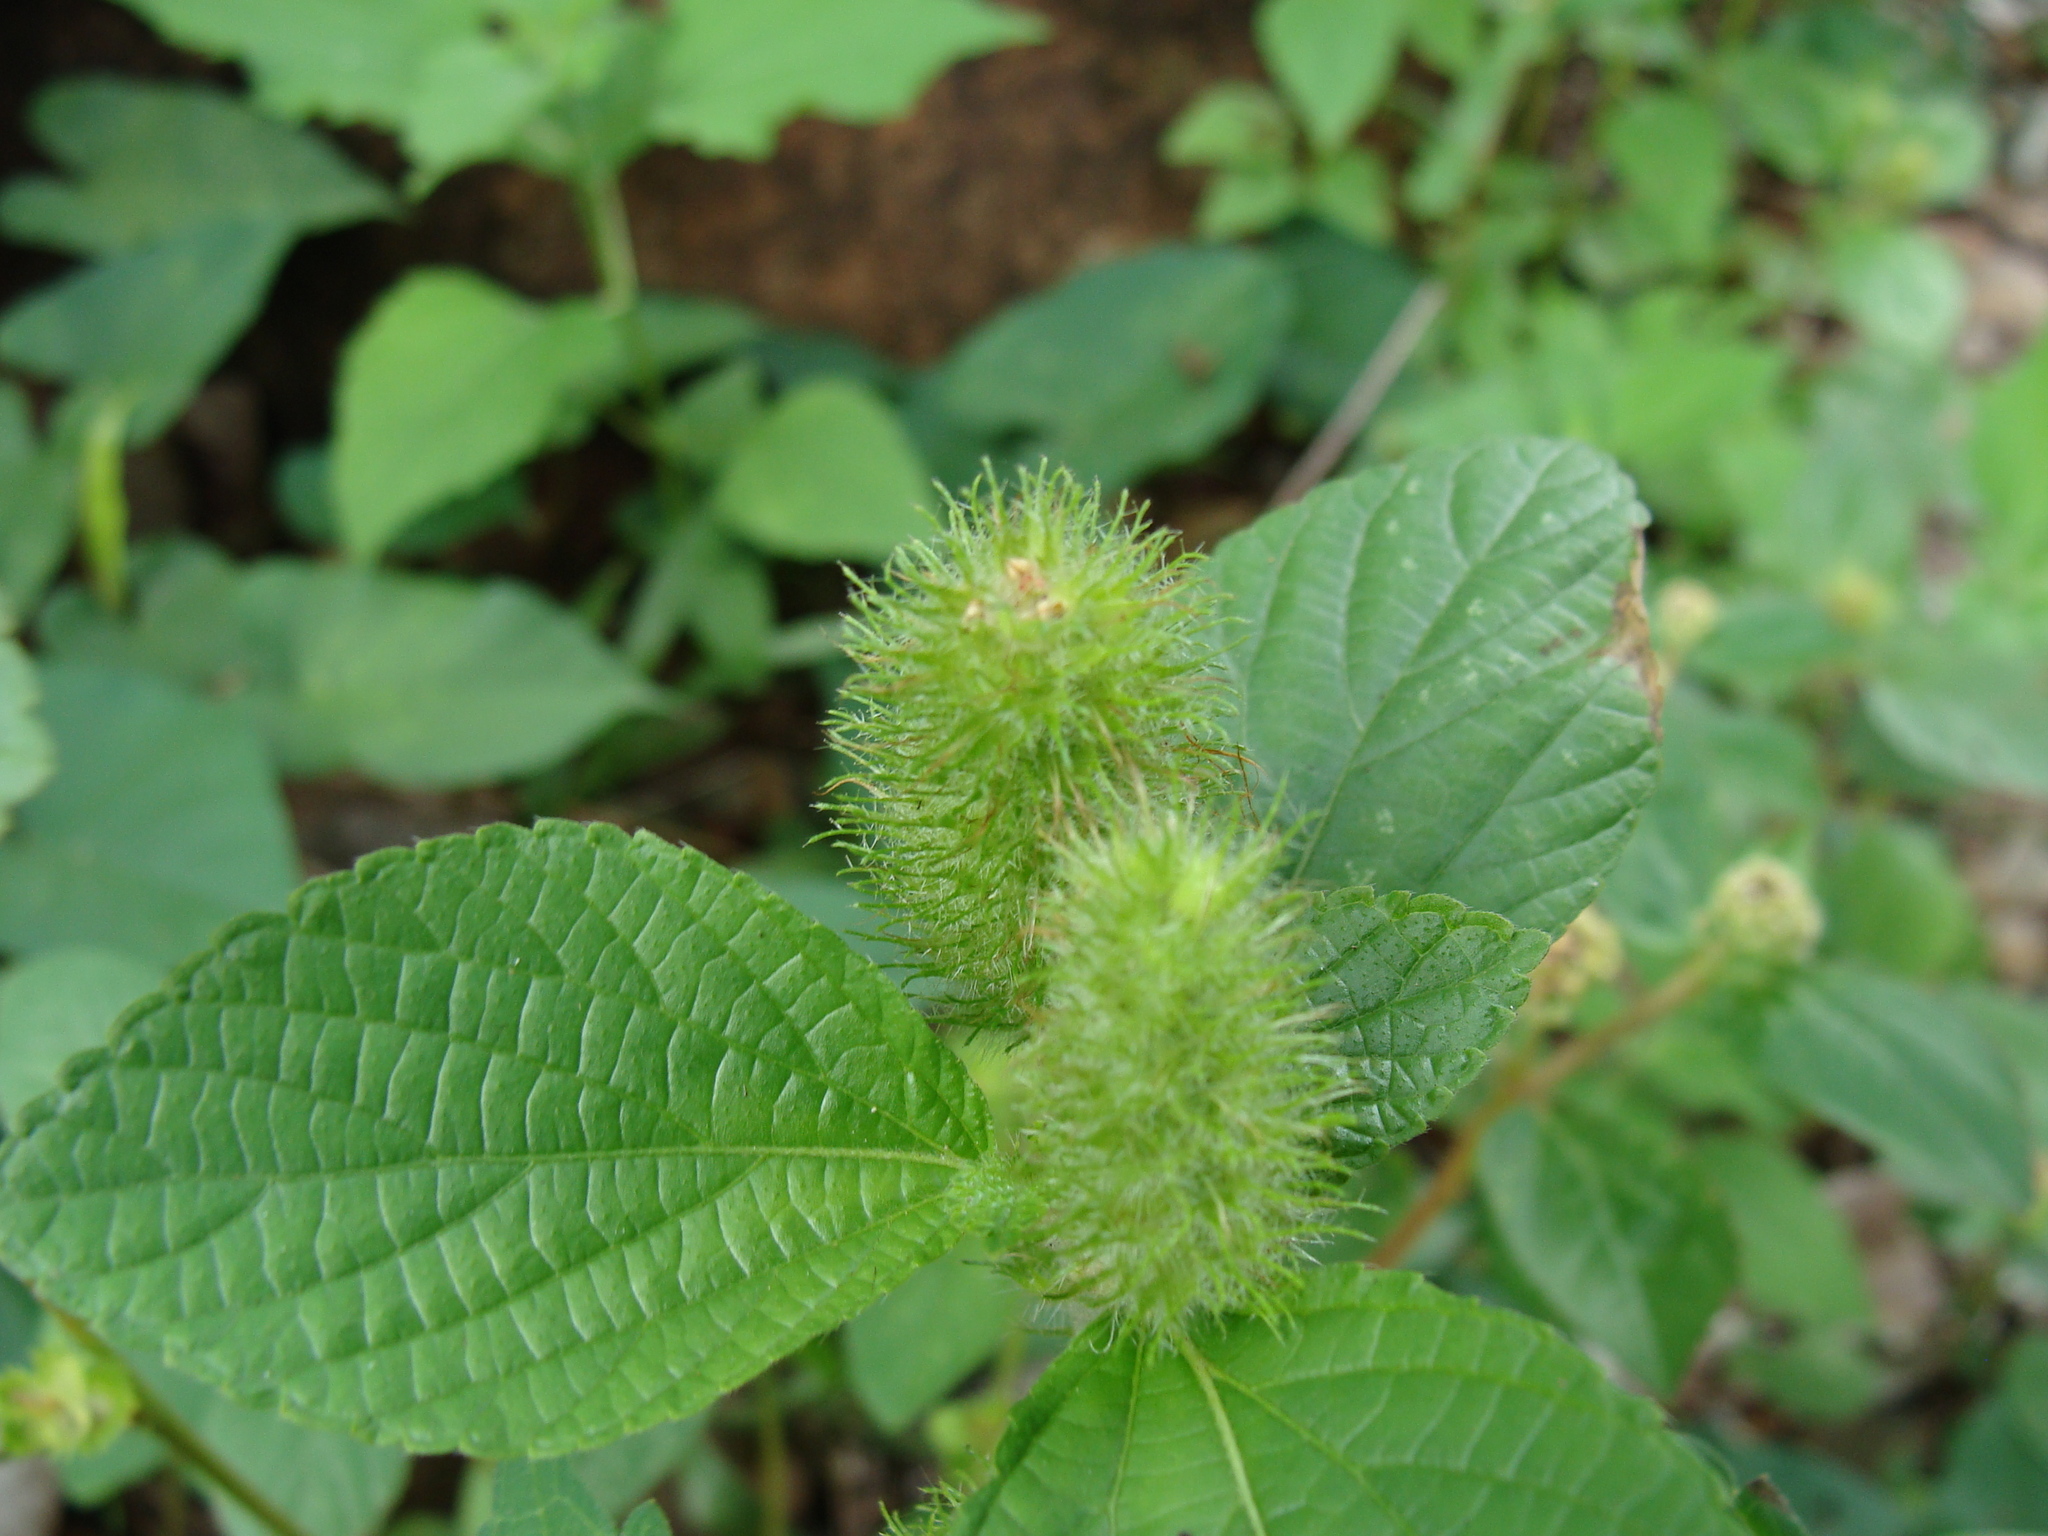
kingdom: Plantae
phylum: Tracheophyta
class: Magnoliopsida
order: Malpighiales
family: Euphorbiaceae
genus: Acalypha
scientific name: Acalypha arvensis
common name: Field copperleaf
